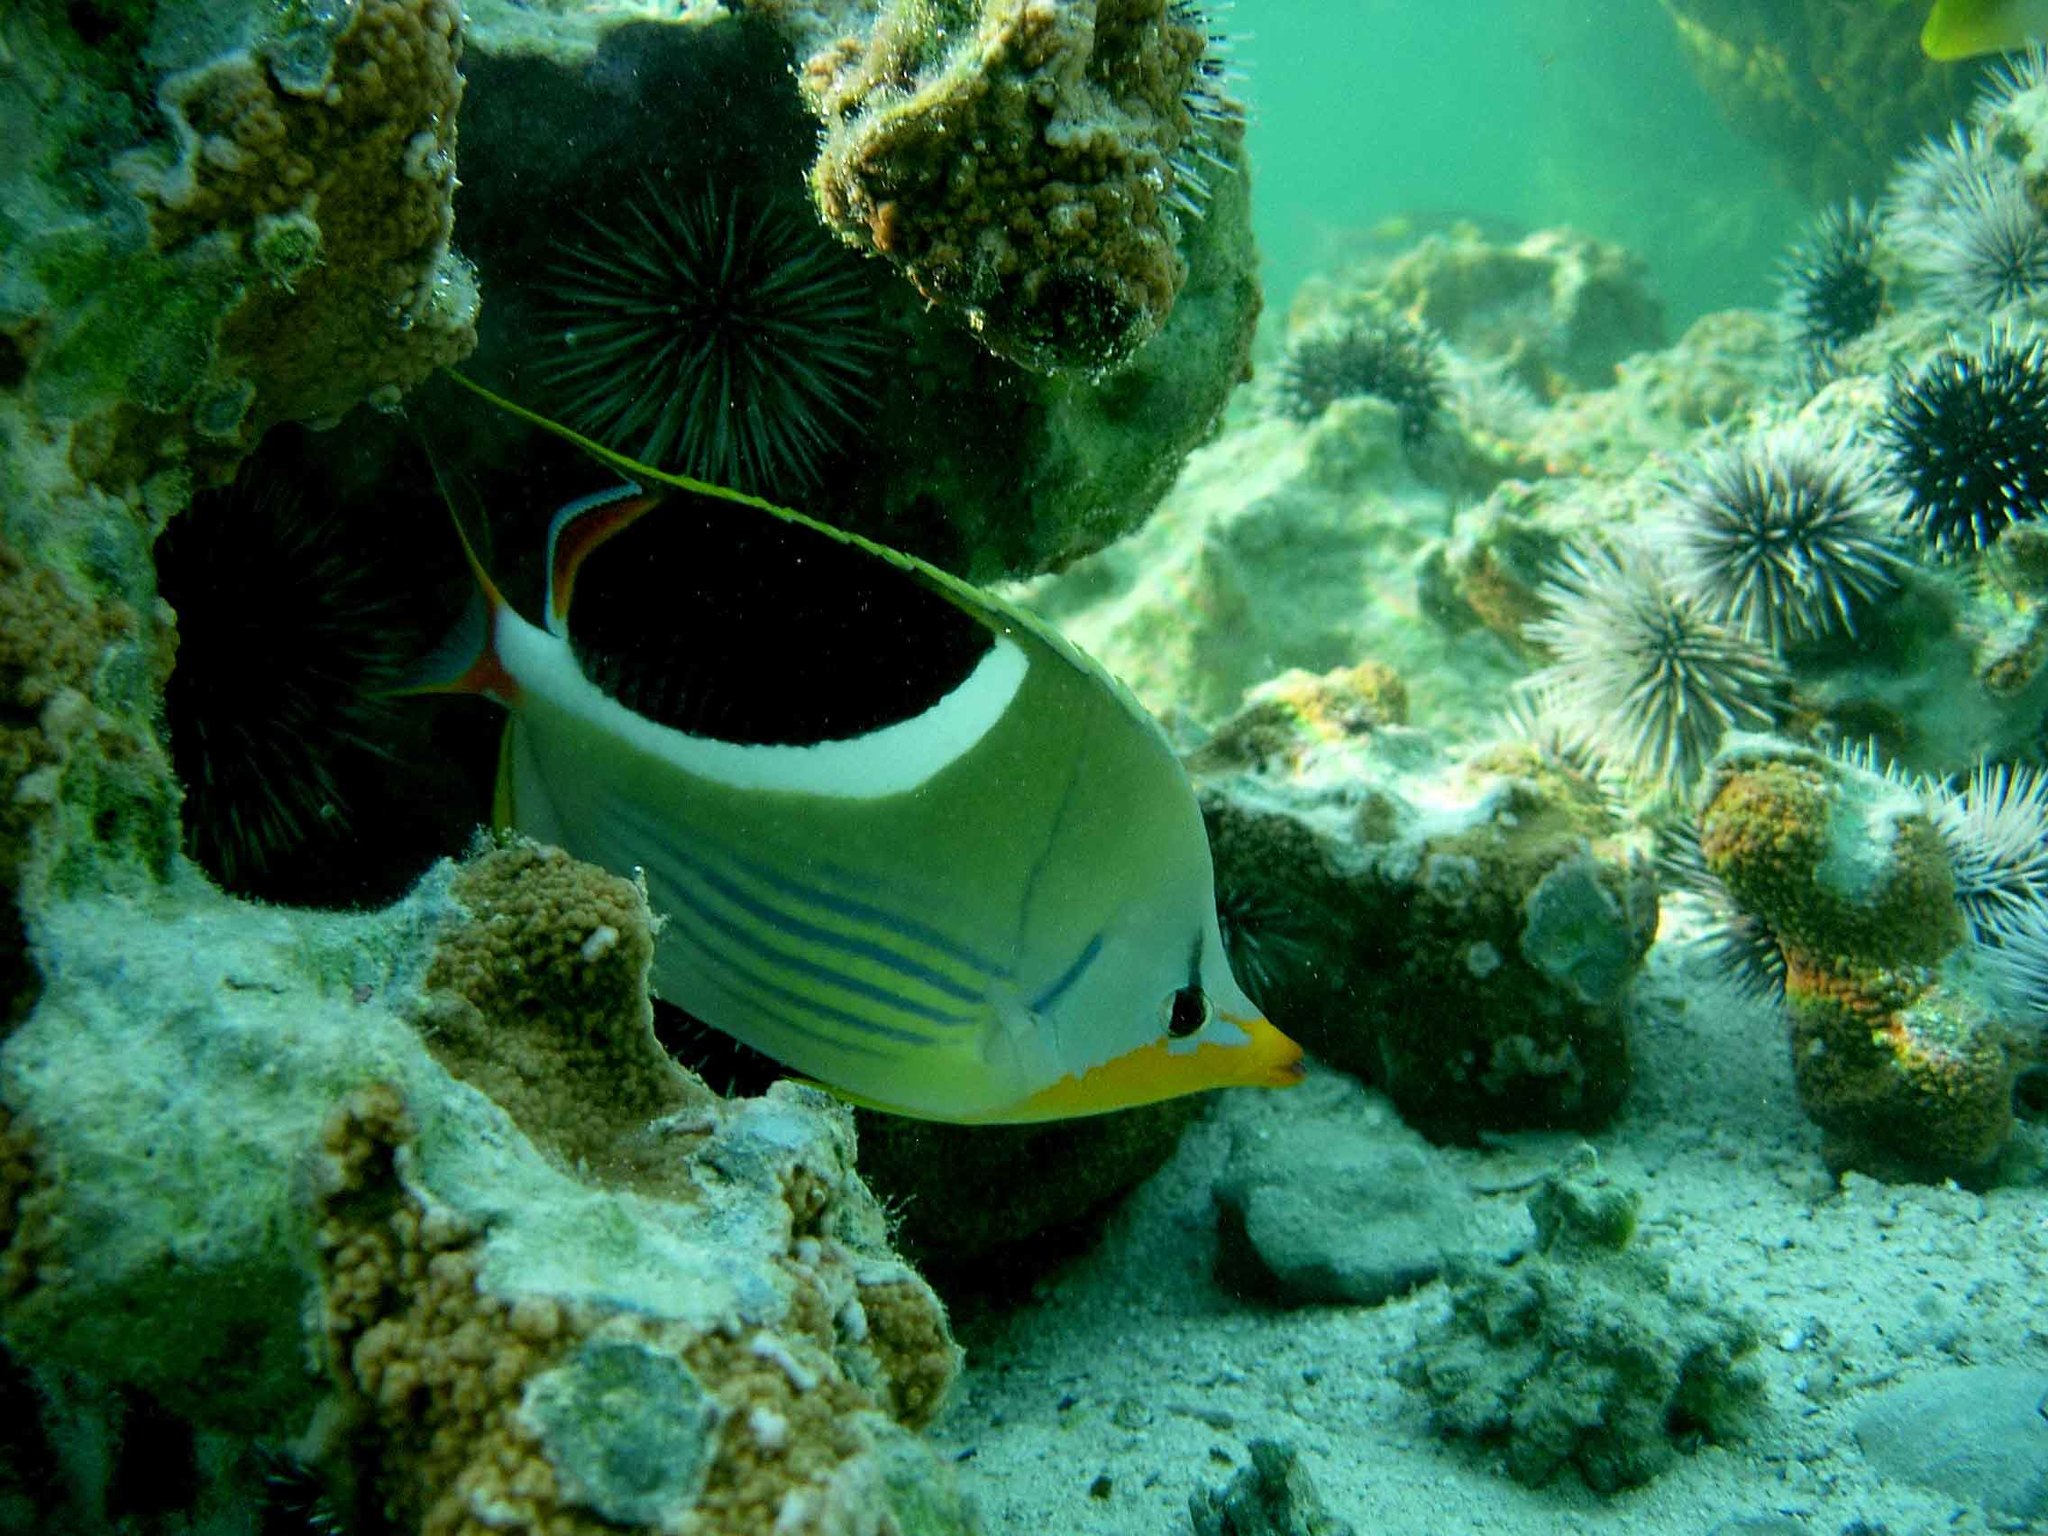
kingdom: Animalia
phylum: Chordata
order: Perciformes
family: Chaetodontidae
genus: Chaetodon
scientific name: Chaetodon ephippium
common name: Saddled butterflyfish
